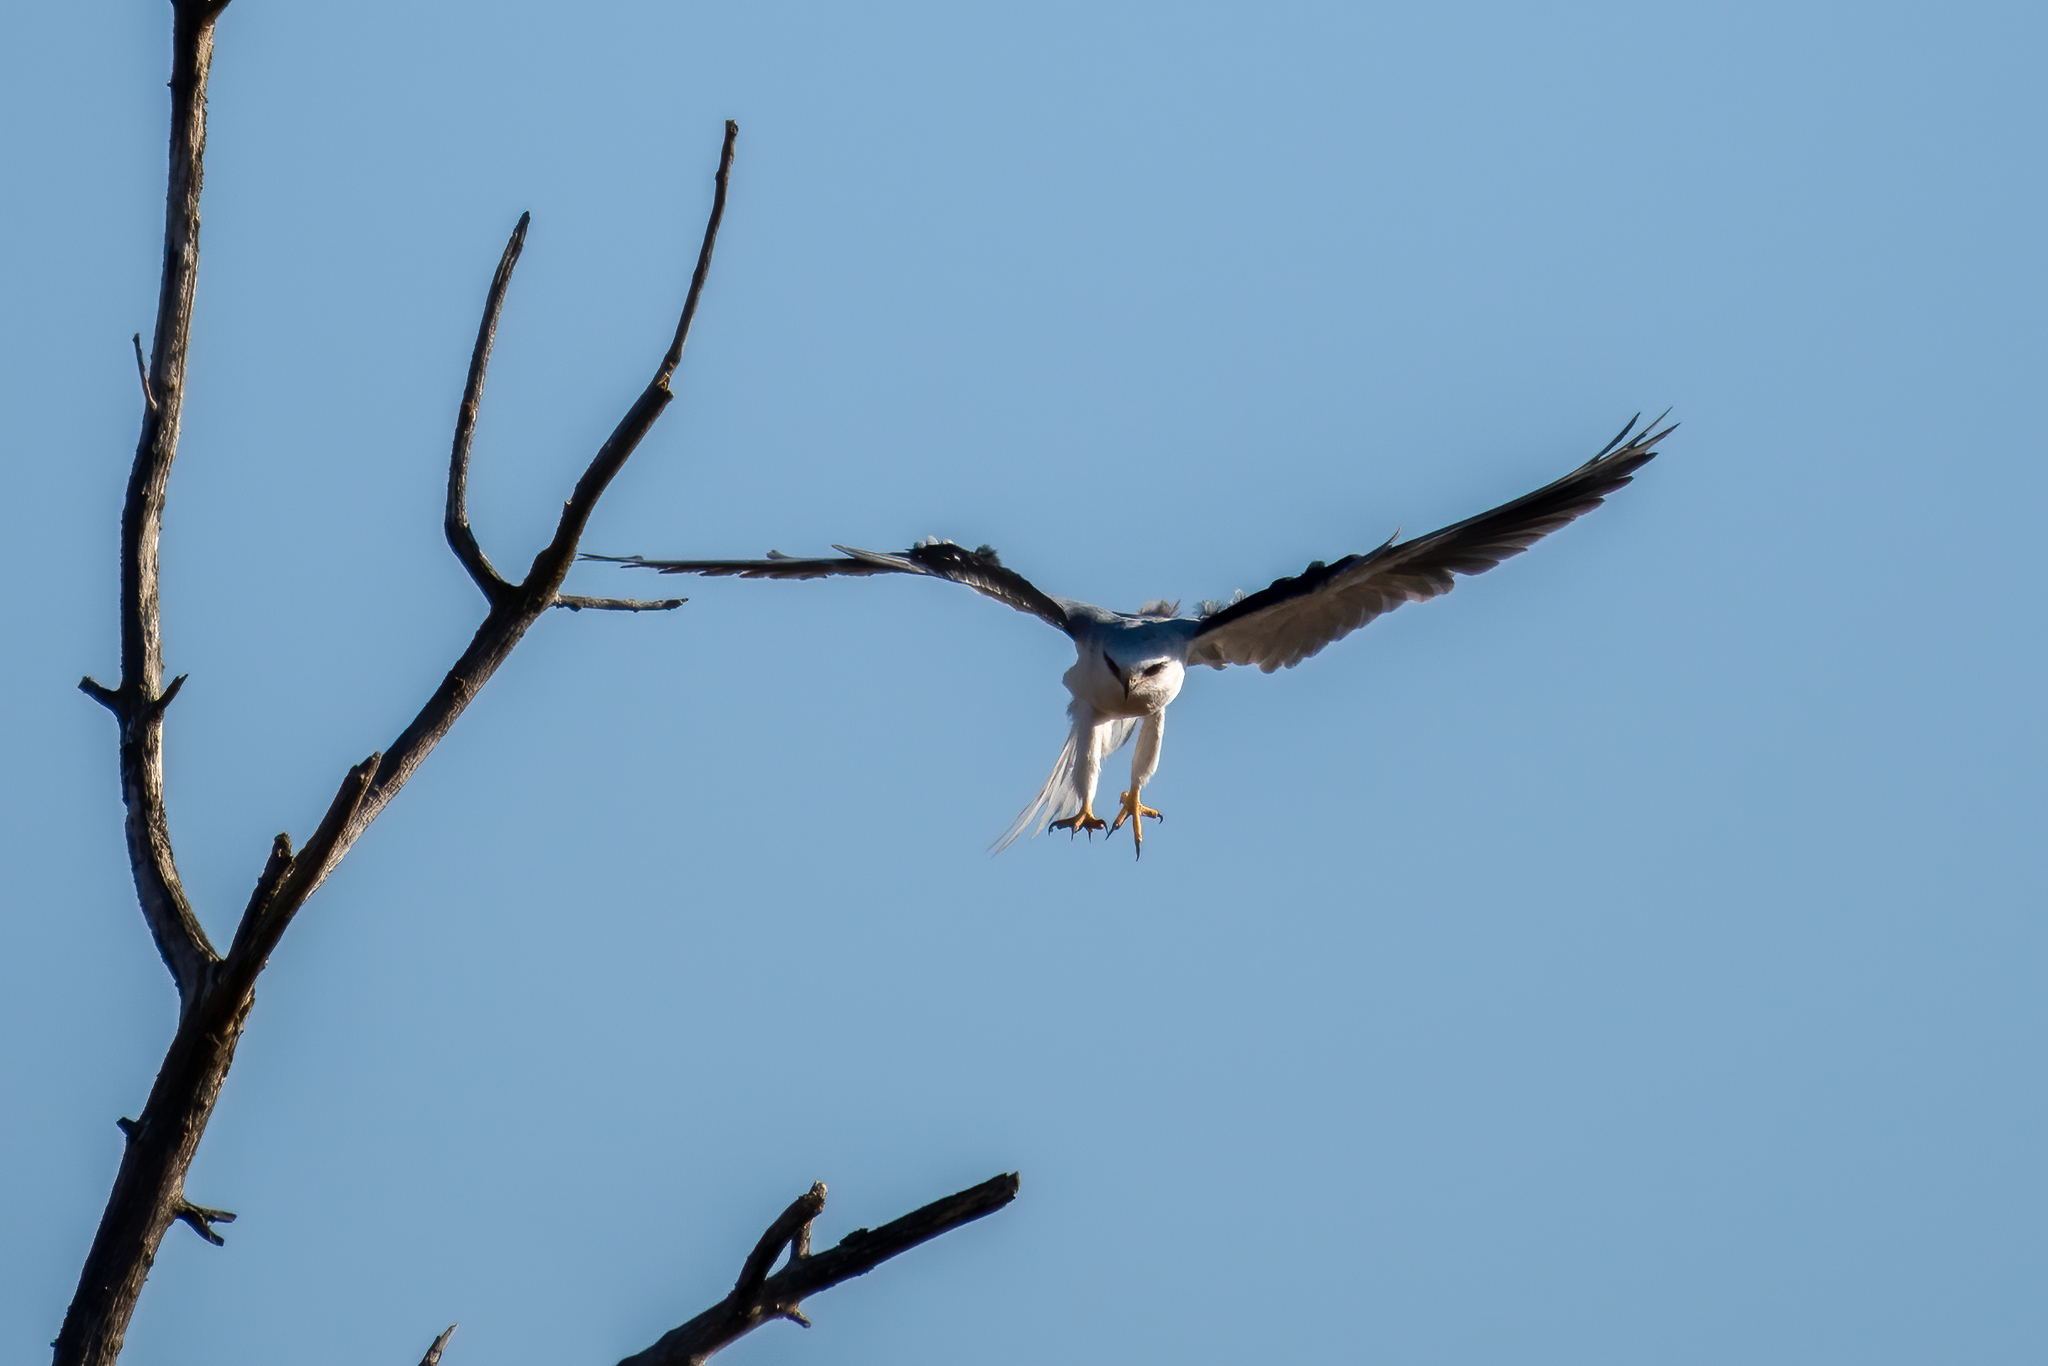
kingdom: Animalia
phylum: Chordata
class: Aves
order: Accipitriformes
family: Accipitridae
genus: Elanus
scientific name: Elanus leucurus
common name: White-tailed kite
